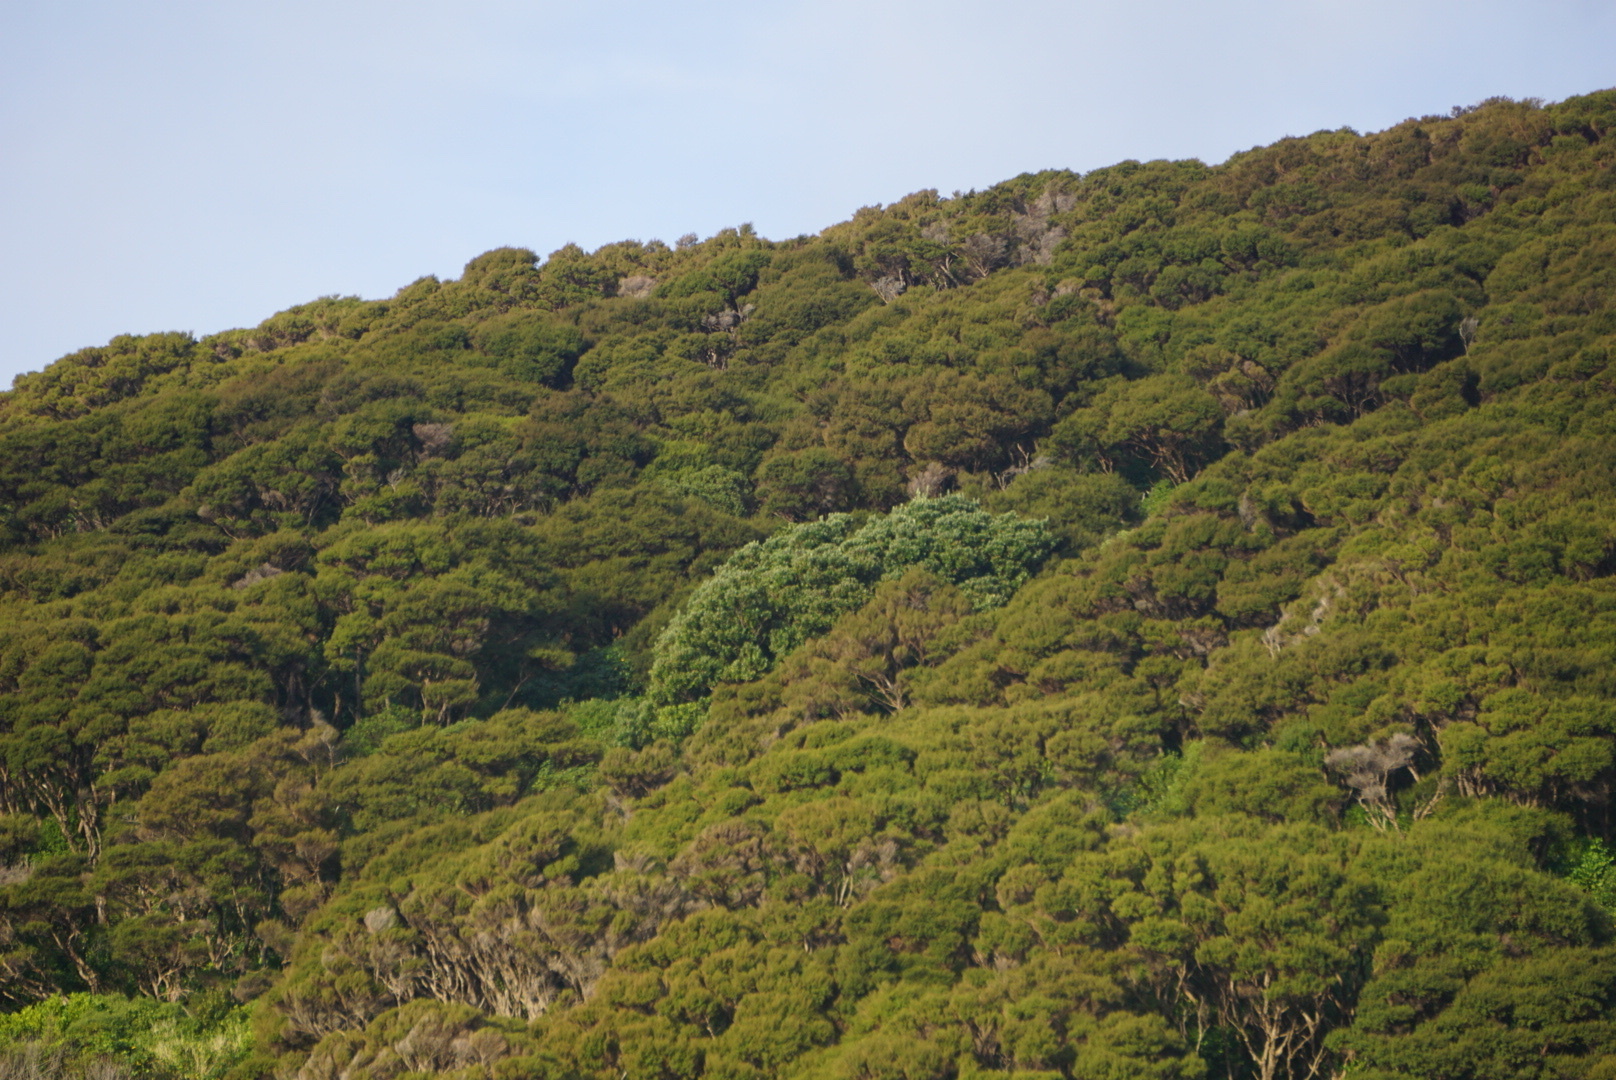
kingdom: Plantae
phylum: Tracheophyta
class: Magnoliopsida
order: Myrtales
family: Myrtaceae
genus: Metrosideros
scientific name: Metrosideros excelsa
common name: New zealand christmastree
